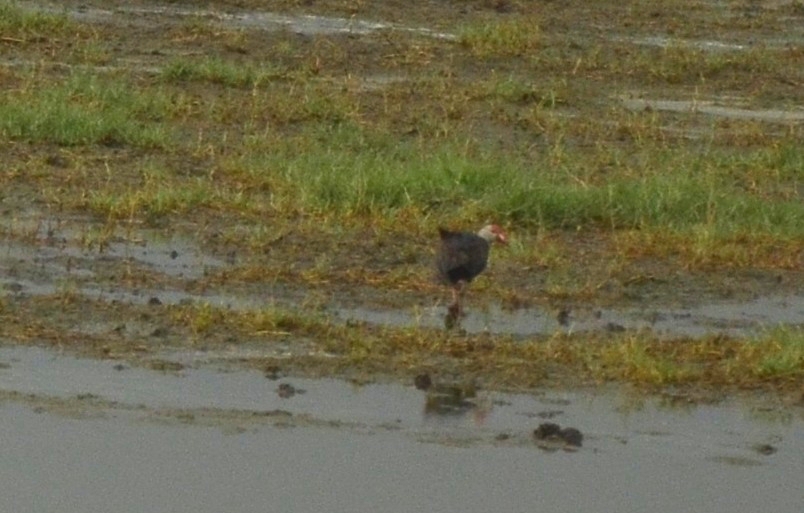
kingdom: Animalia
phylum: Chordata
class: Aves
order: Gruiformes
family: Rallidae
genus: Porphyrio
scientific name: Porphyrio porphyrio
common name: Purple swamphen
